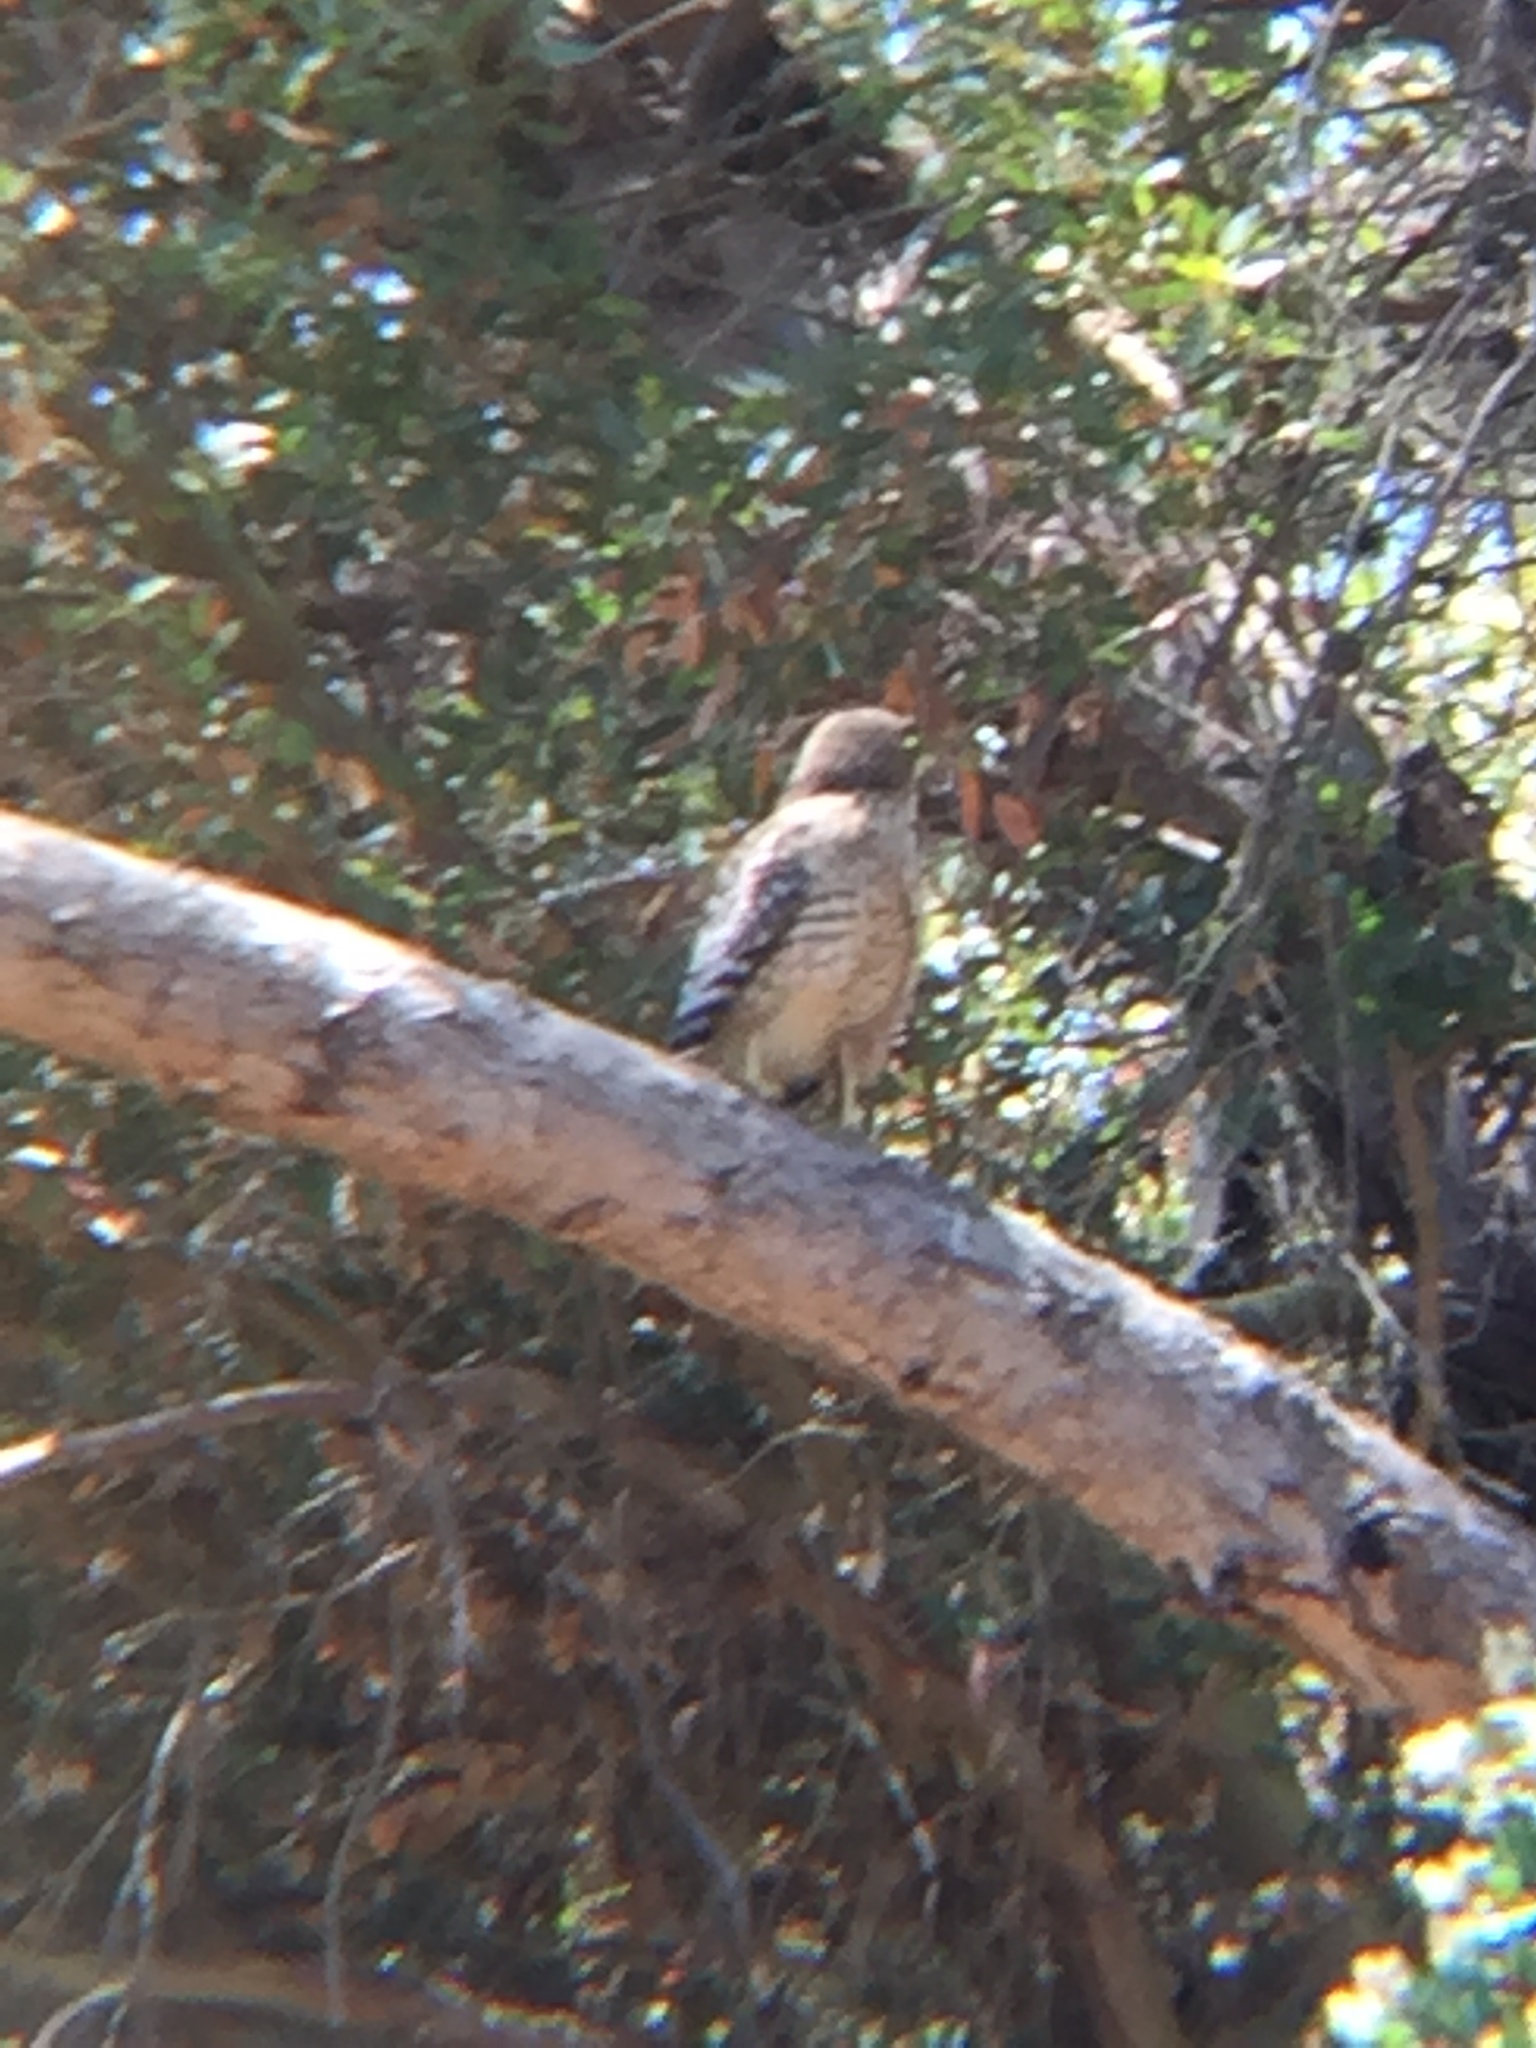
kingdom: Animalia
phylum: Chordata
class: Aves
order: Accipitriformes
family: Accipitridae
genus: Buteo
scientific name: Buteo lineatus
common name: Red-shouldered hawk
